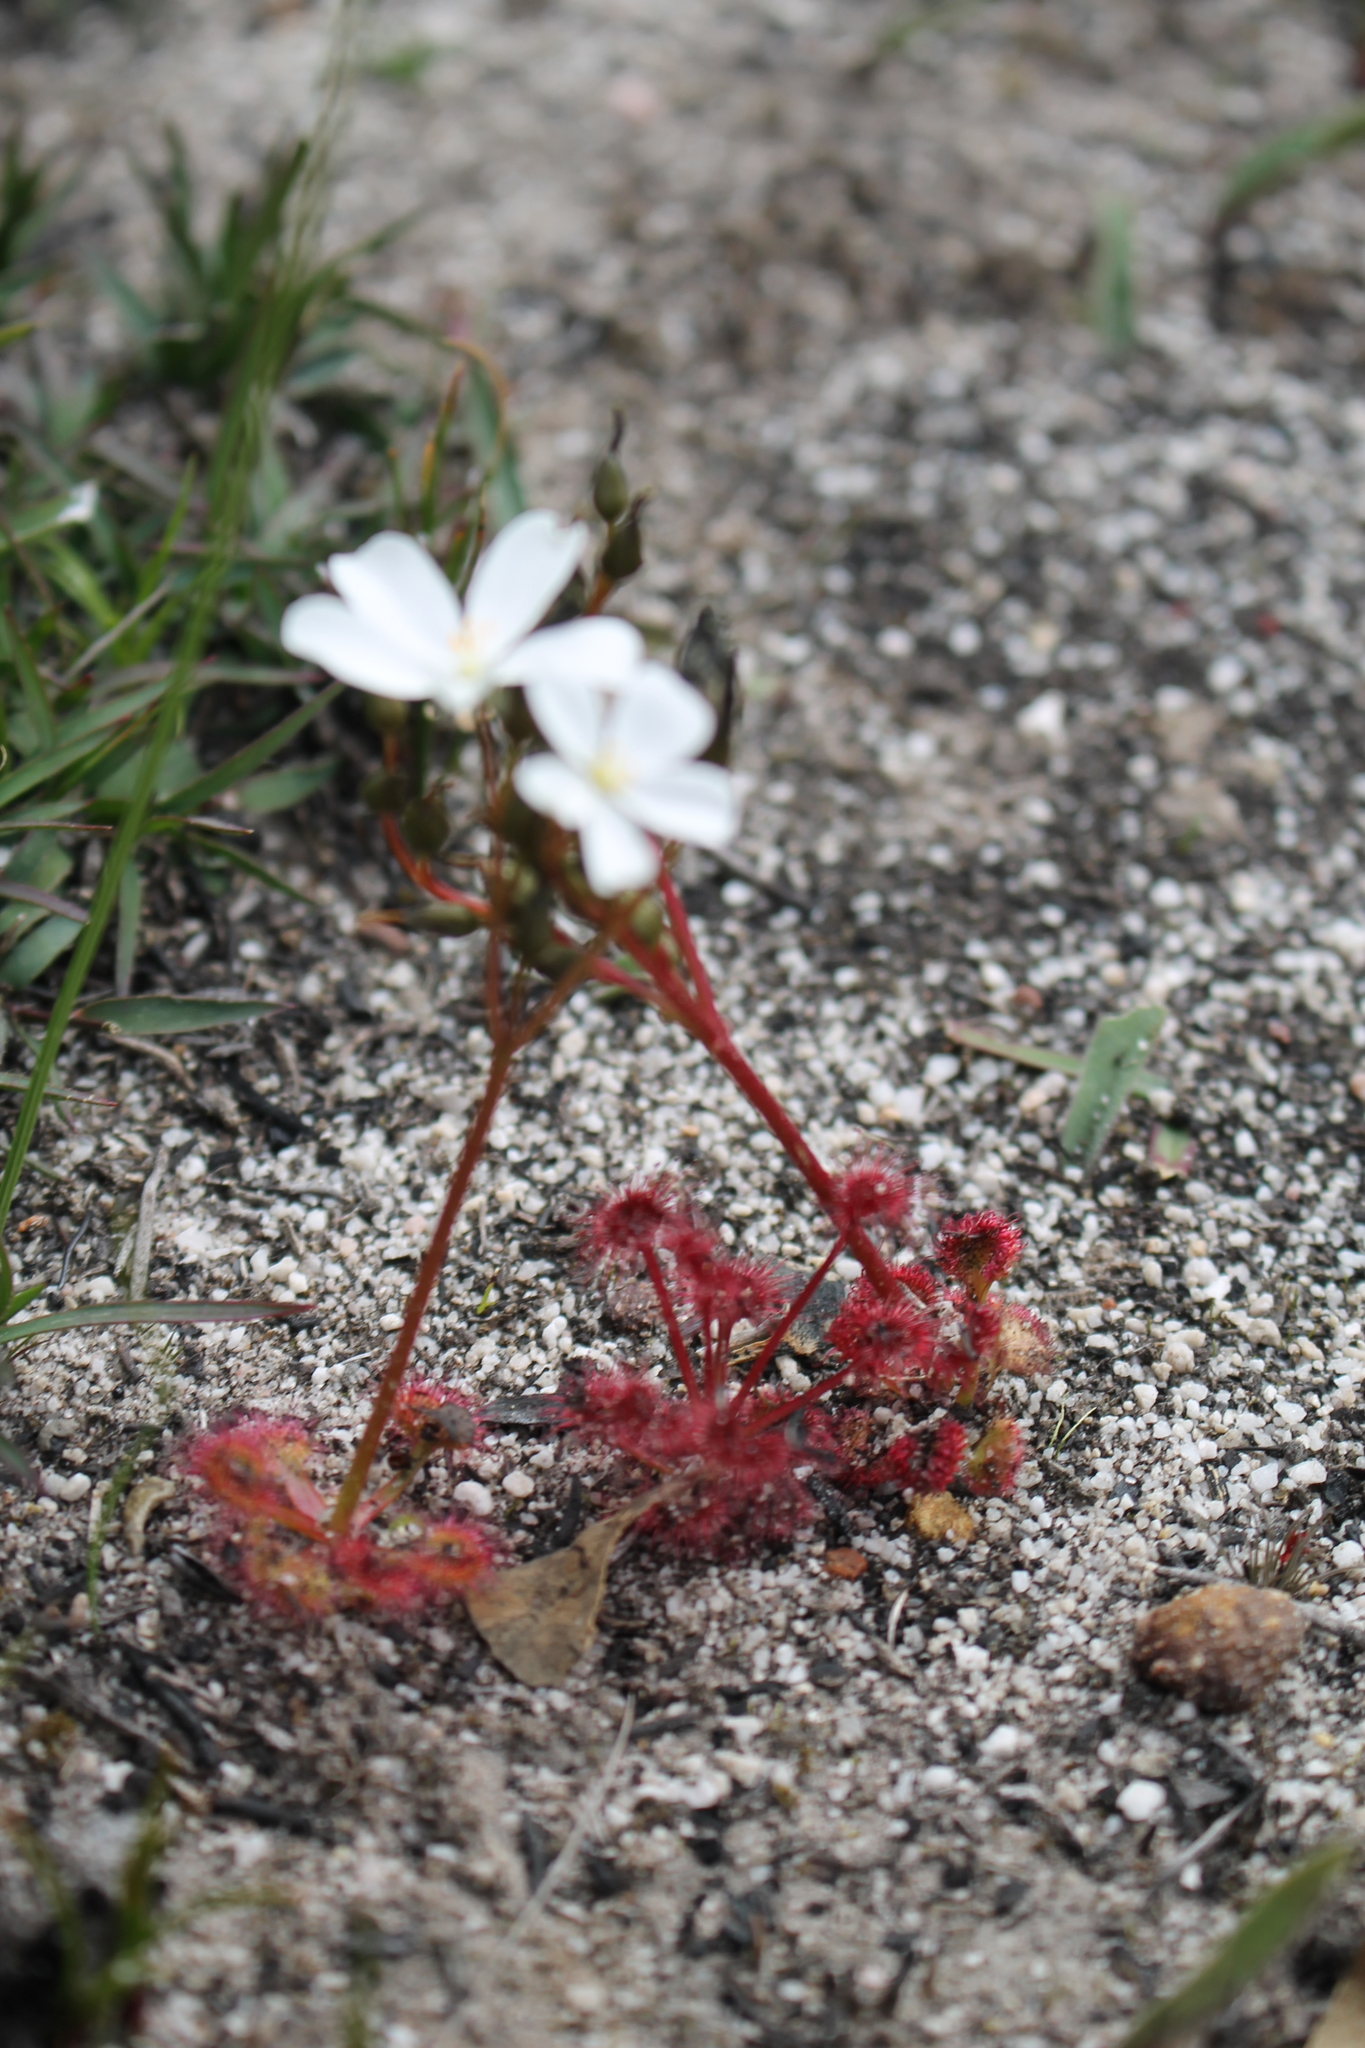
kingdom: Plantae
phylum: Tracheophyta
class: Magnoliopsida
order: Caryophyllales
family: Droseraceae
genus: Drosera
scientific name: Drosera stolonifera
